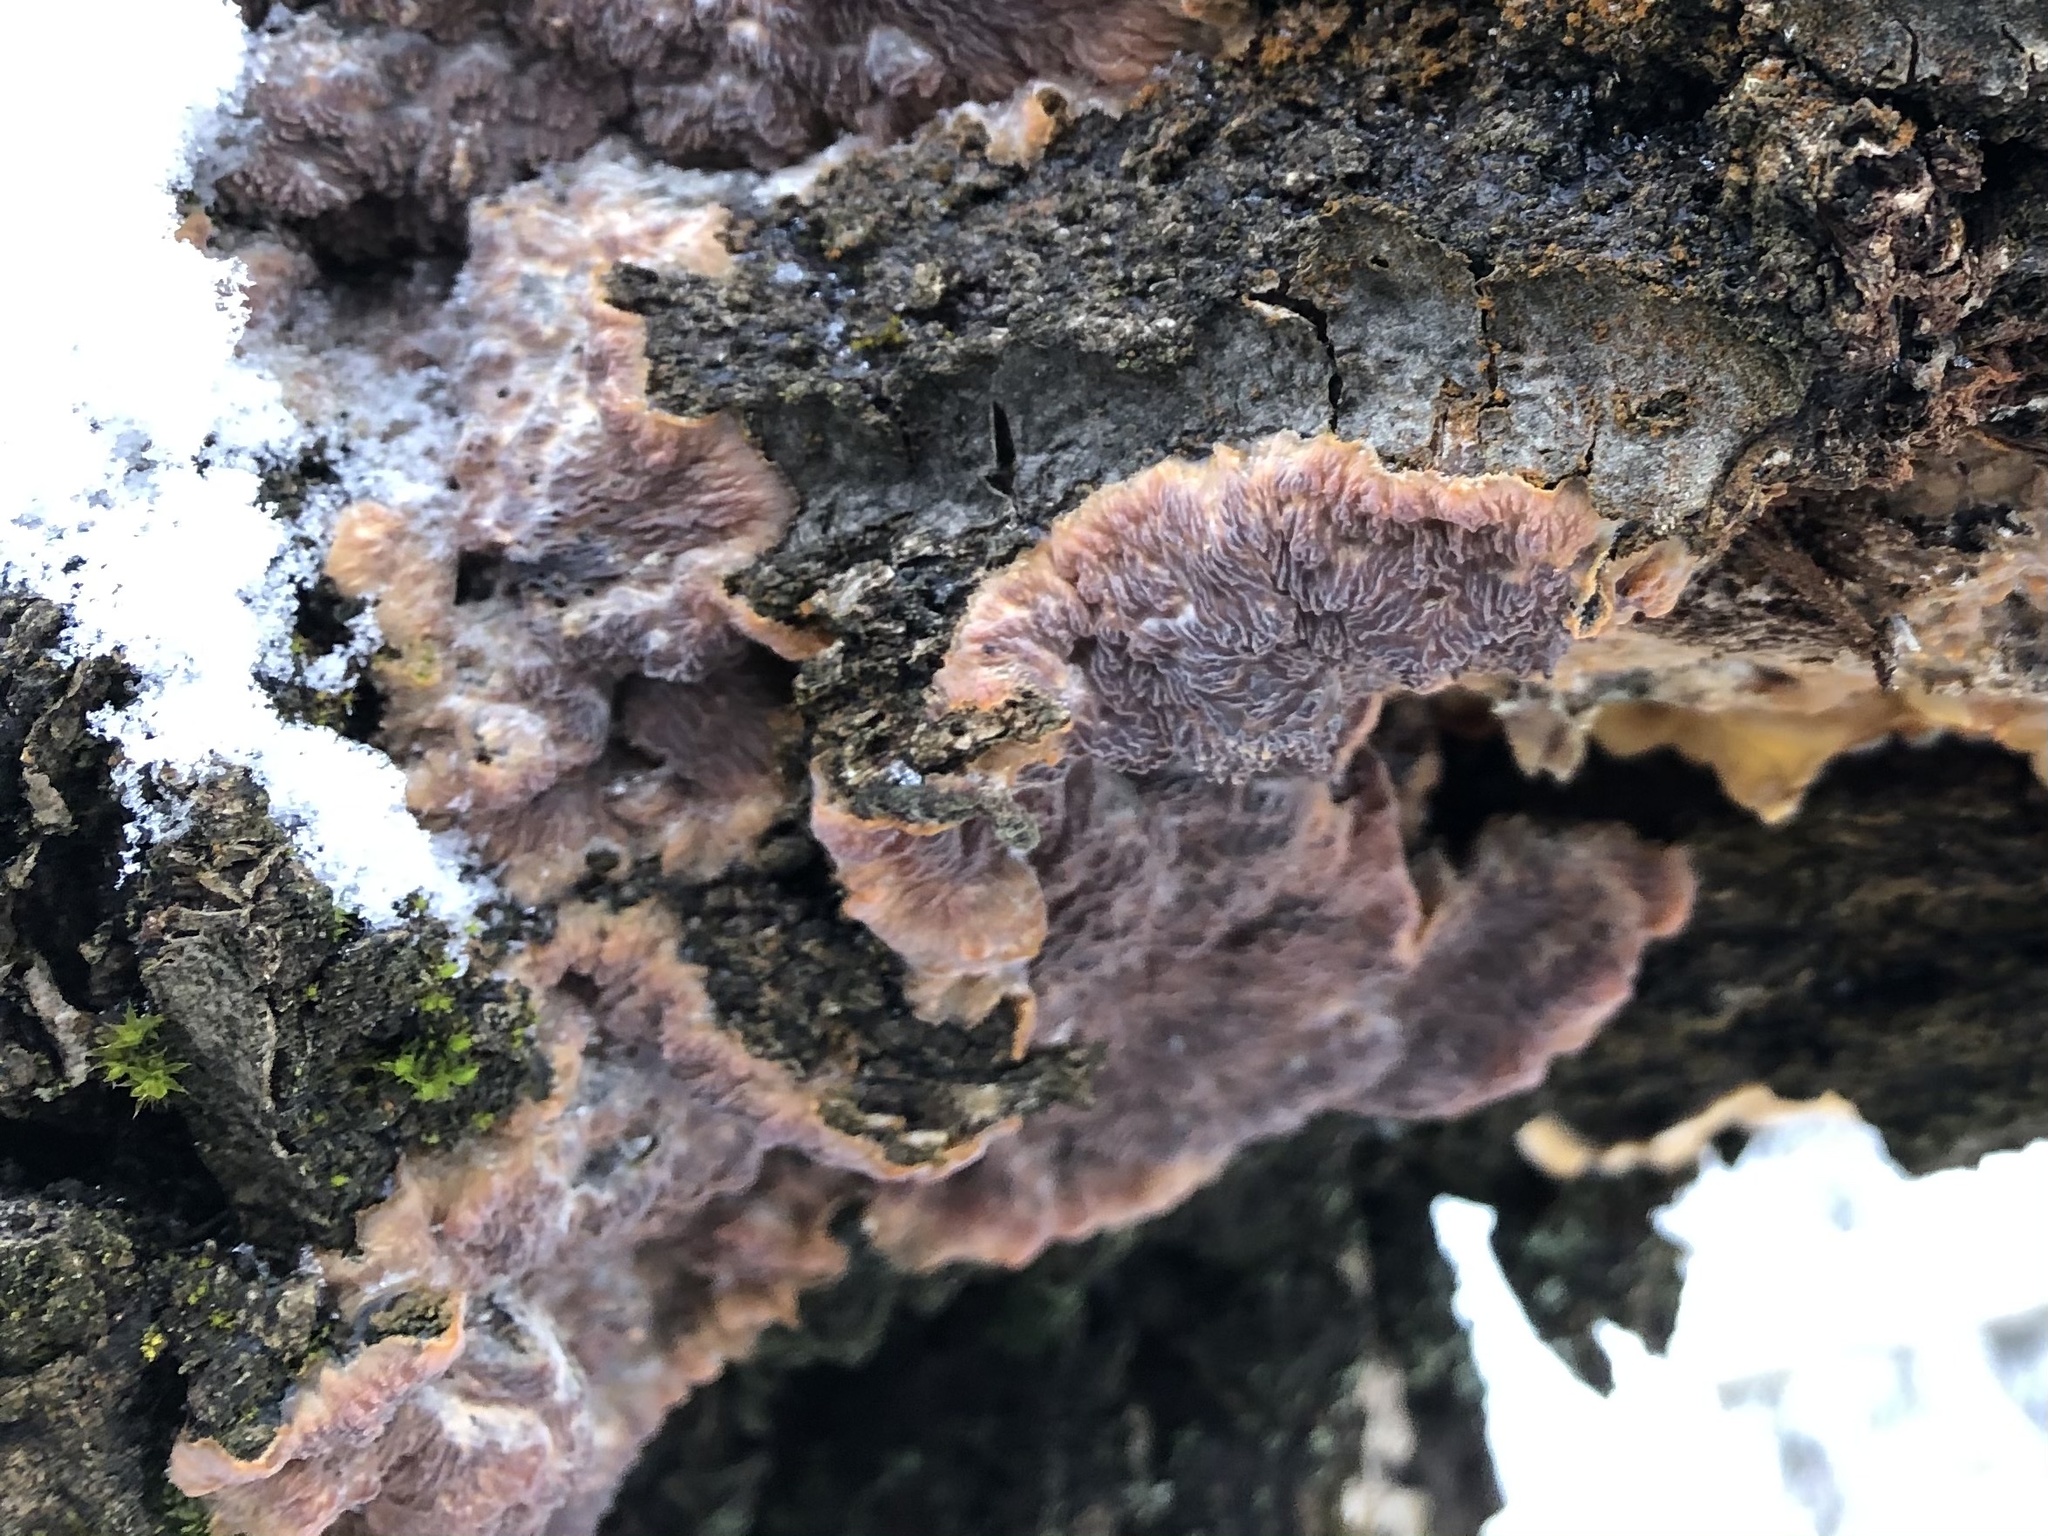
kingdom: Fungi
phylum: Basidiomycota
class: Agaricomycetes
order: Polyporales
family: Meruliaceae
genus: Phlebia
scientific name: Phlebia radiata
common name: Wrinkled crust
